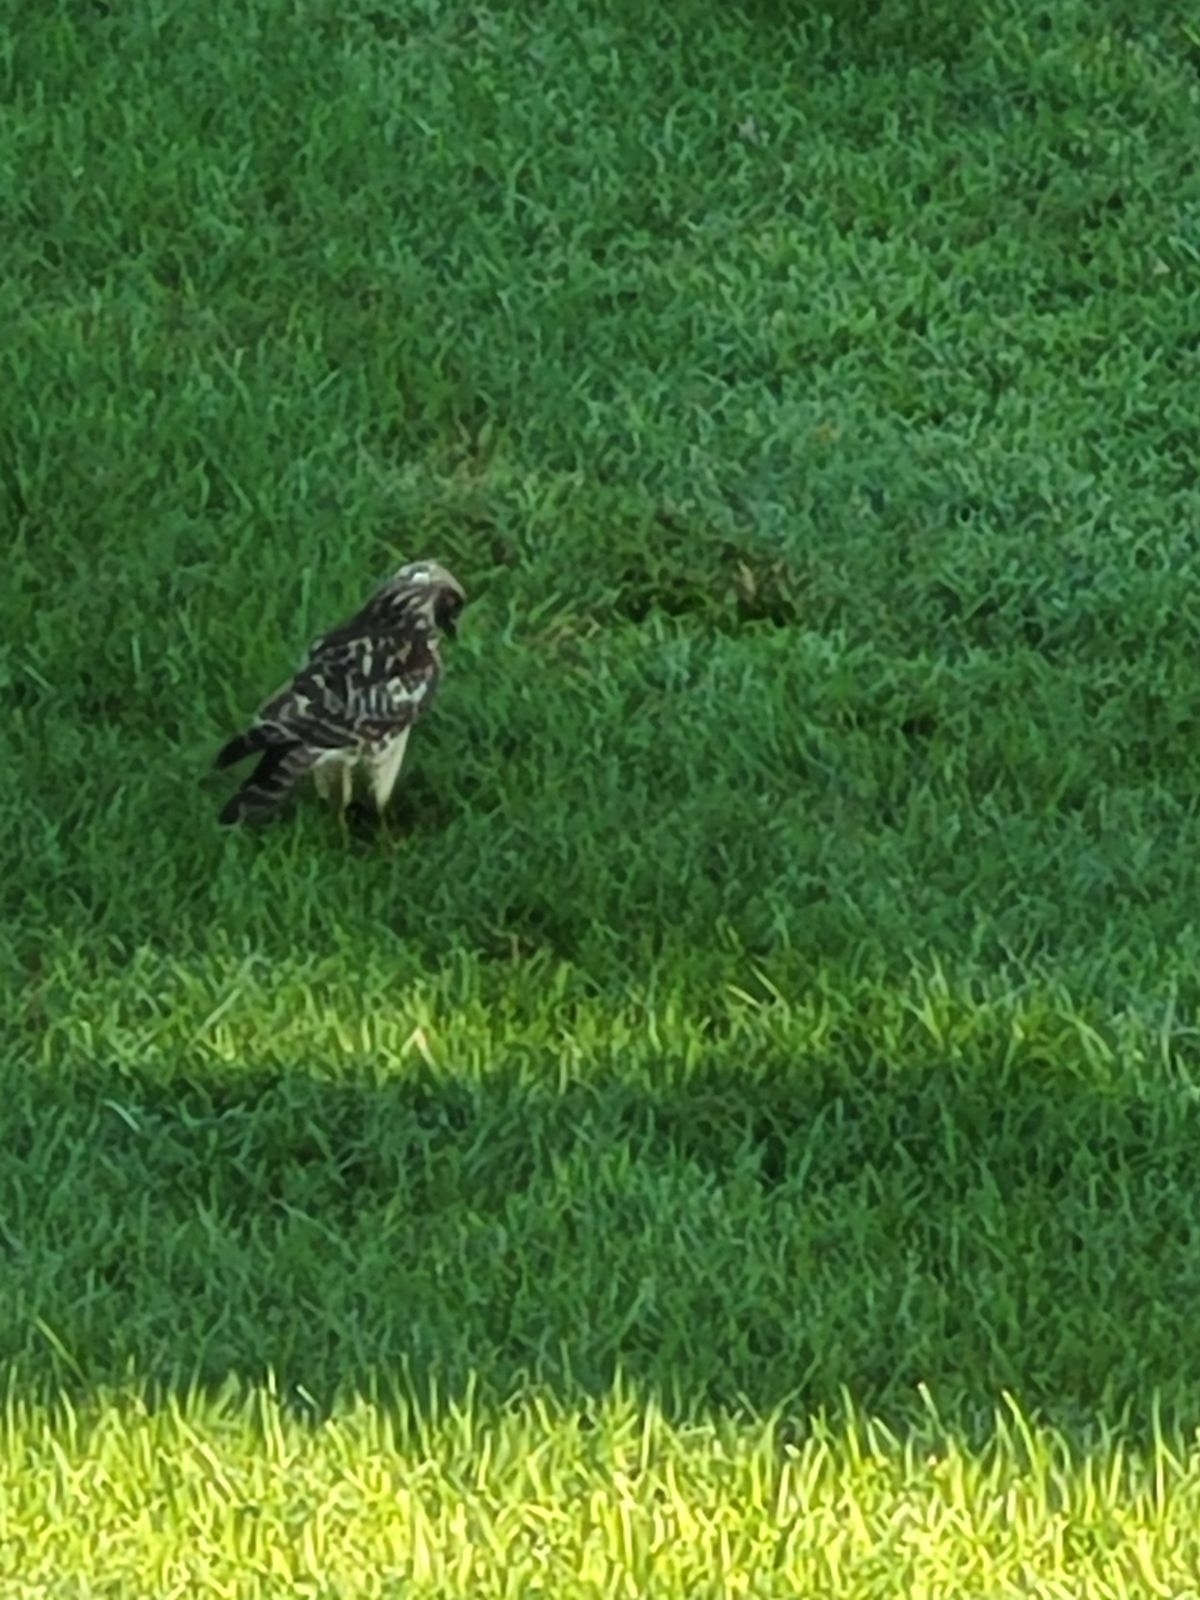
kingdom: Animalia
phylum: Chordata
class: Aves
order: Accipitriformes
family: Accipitridae
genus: Buteo
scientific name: Buteo lineatus
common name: Red-shouldered hawk
